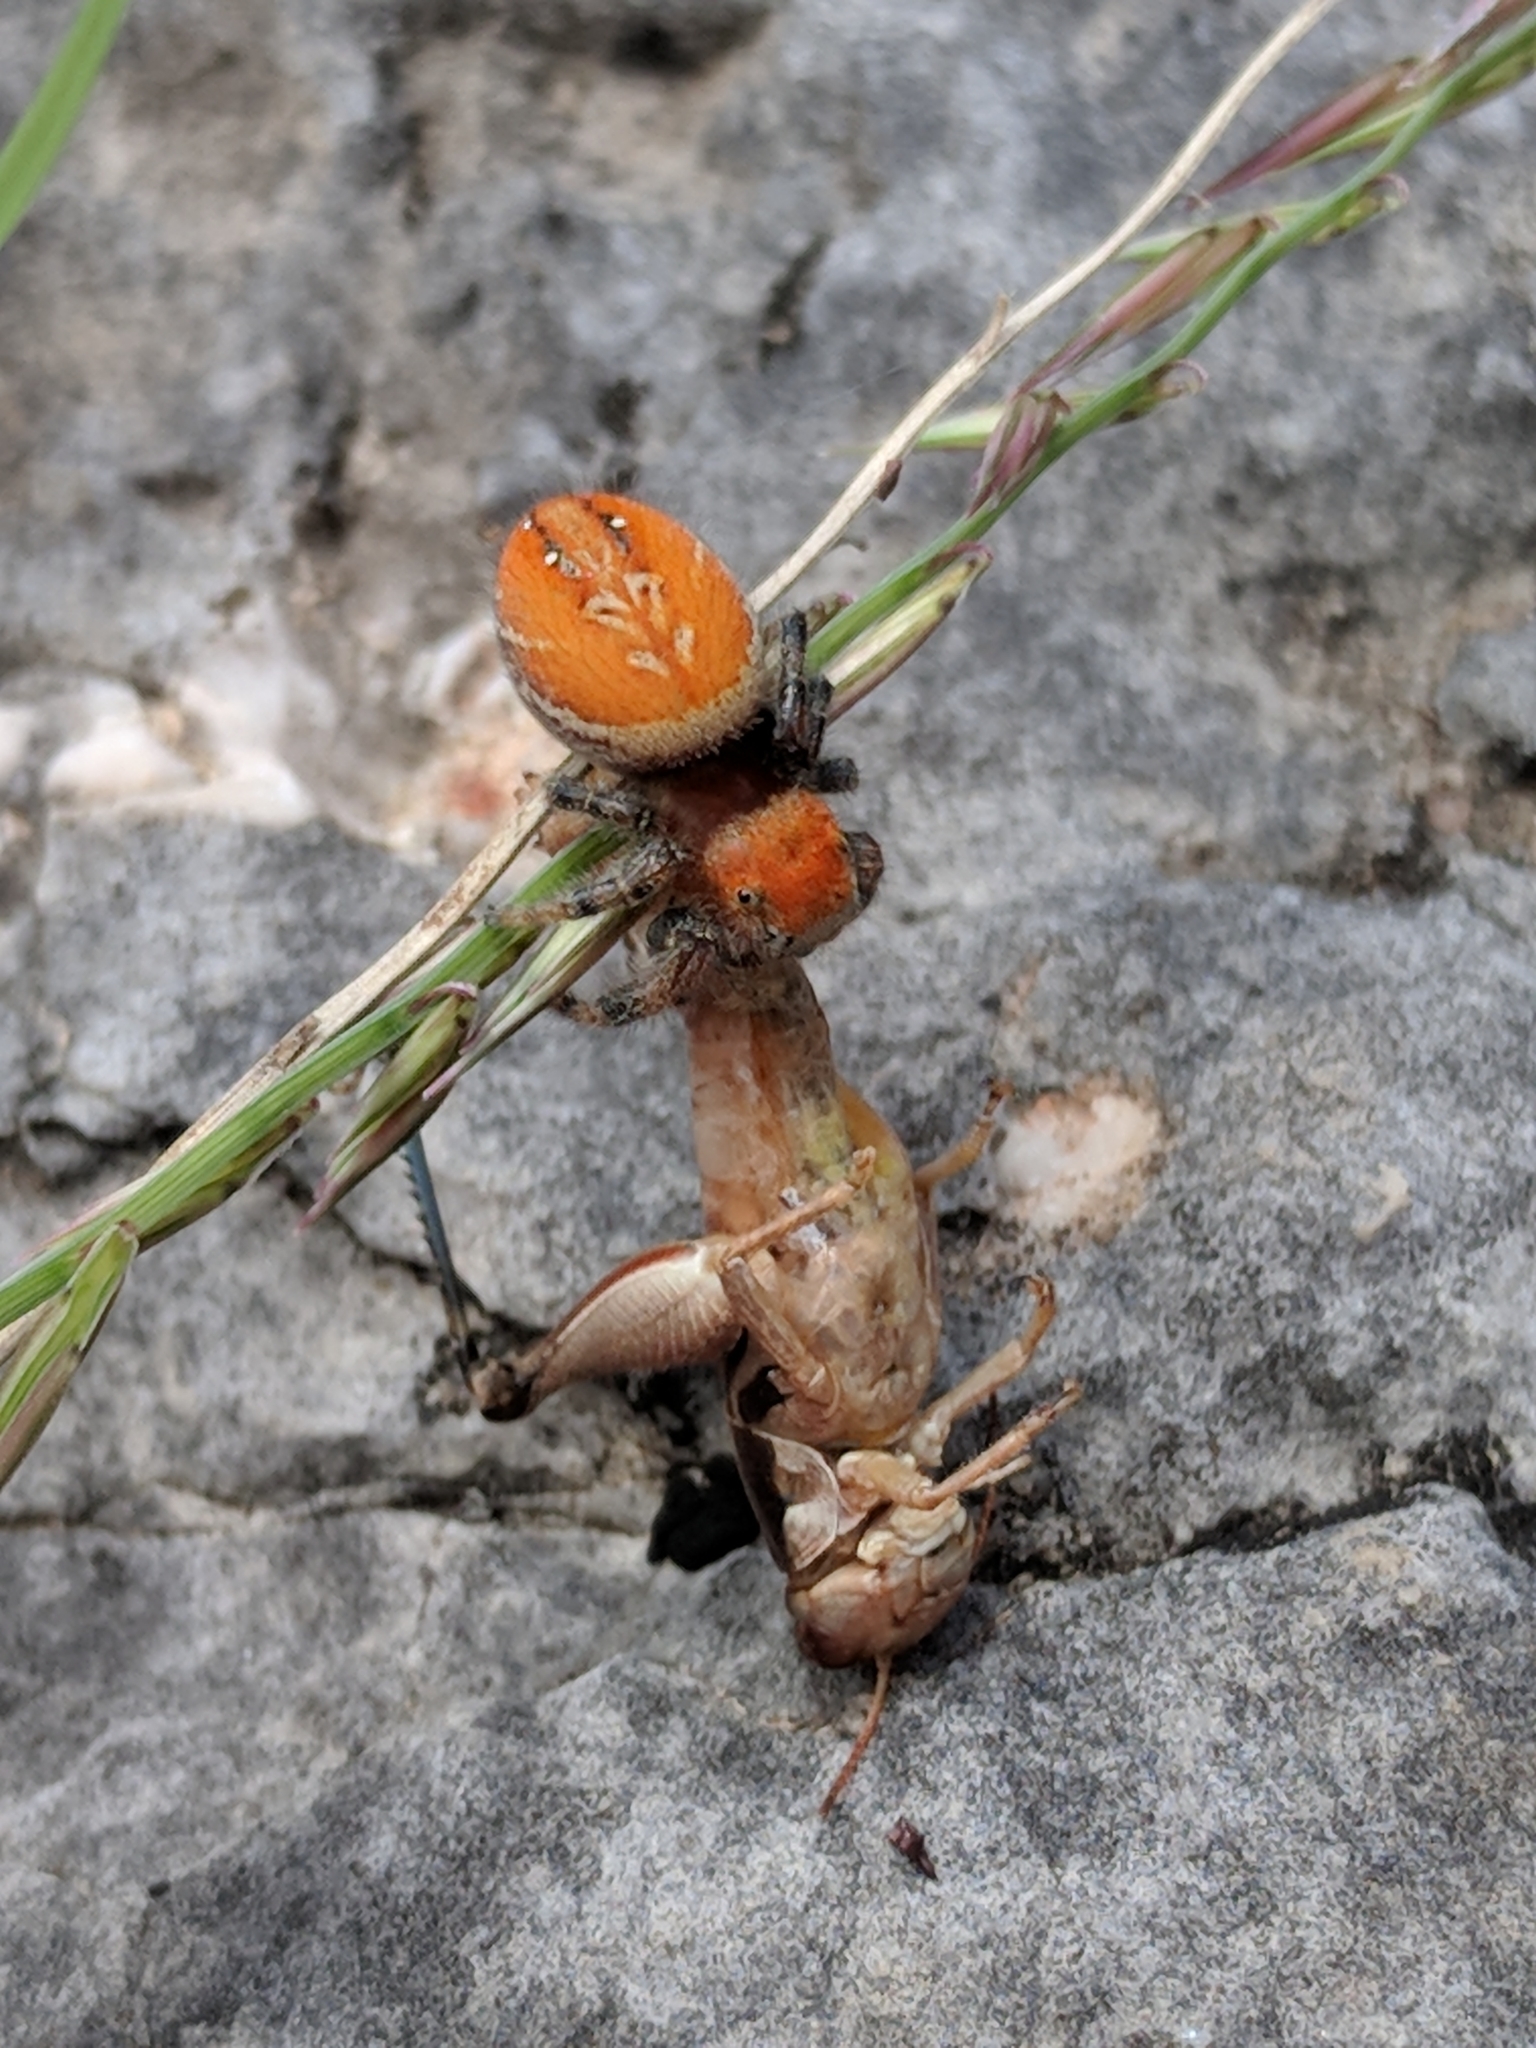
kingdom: Animalia
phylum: Arthropoda
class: Arachnida
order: Araneae
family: Salticidae
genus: Phidippus
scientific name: Phidippus cardinalis
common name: Cardinal jumper
